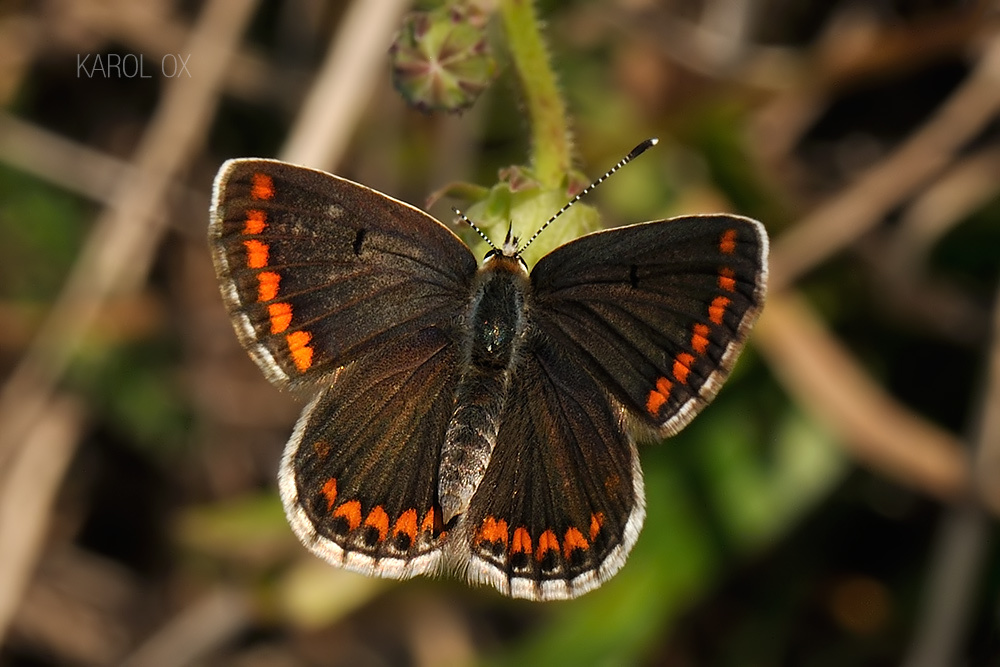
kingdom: Animalia
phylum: Arthropoda
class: Insecta
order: Lepidoptera
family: Lycaenidae
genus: Aricia
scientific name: Aricia agestis
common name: Brown argus
